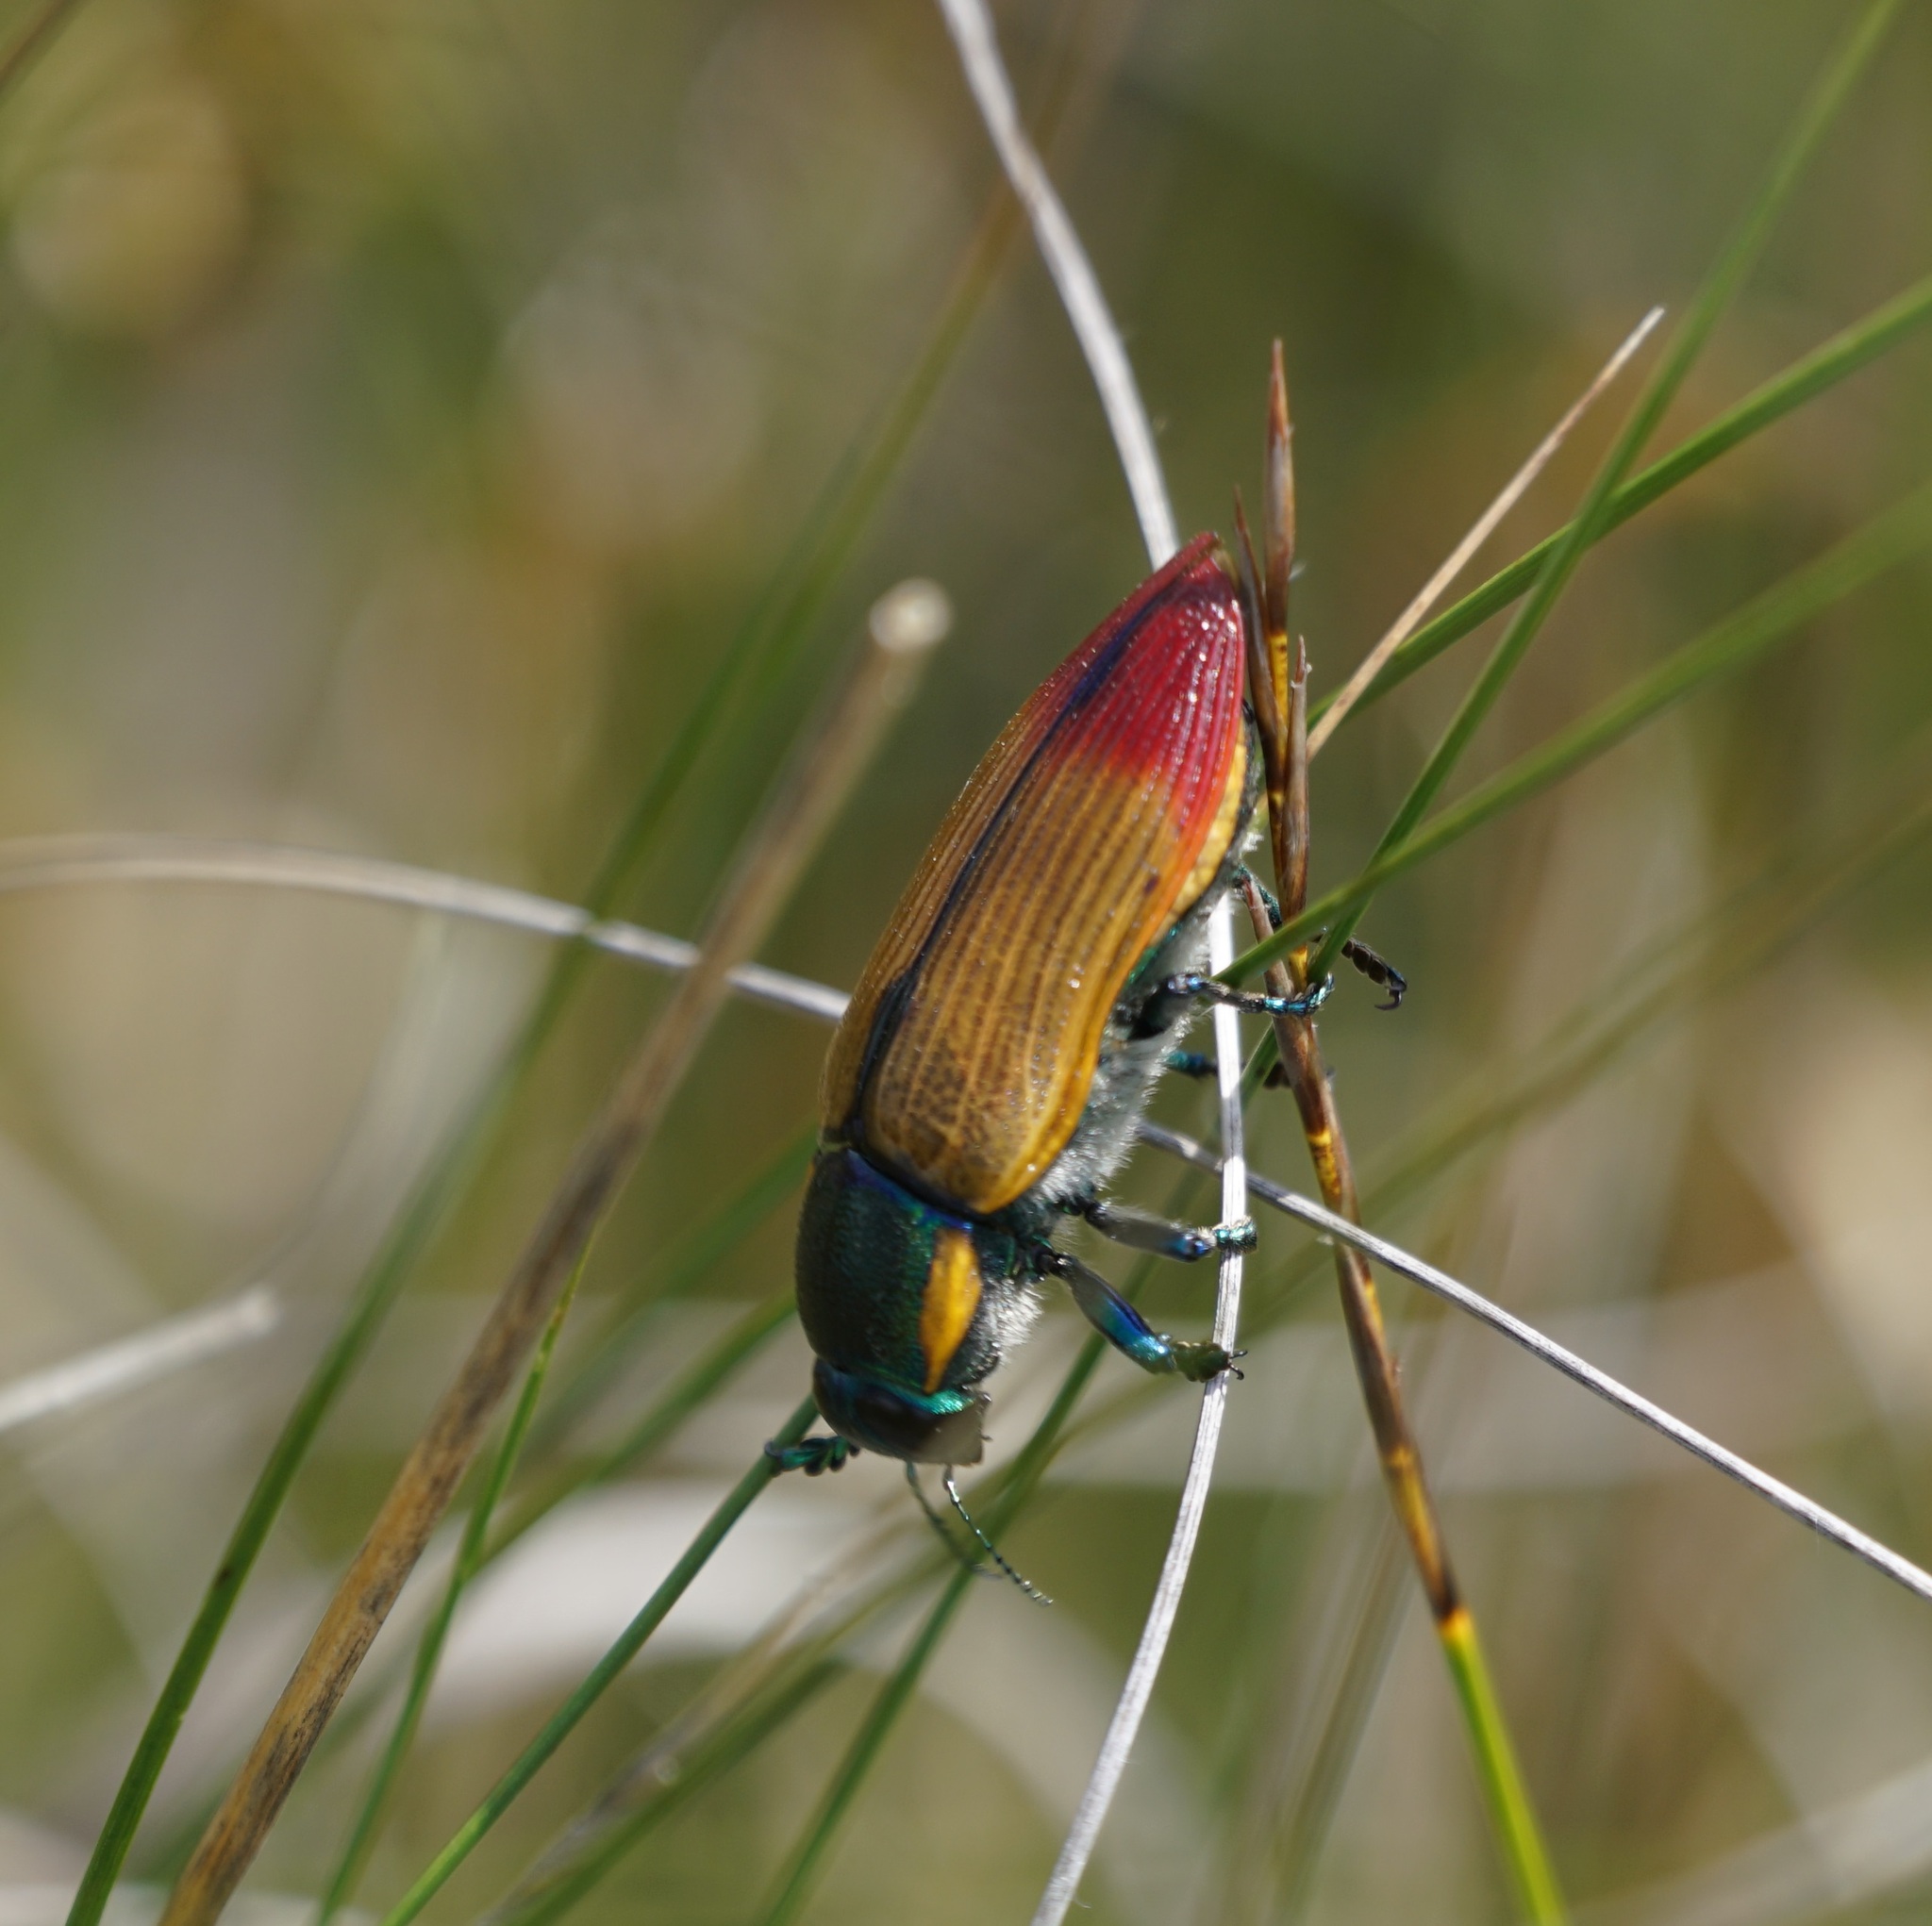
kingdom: Animalia
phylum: Arthropoda
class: Insecta
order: Coleoptera
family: Buprestidae
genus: Temognatha
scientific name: Temognatha variabilis
